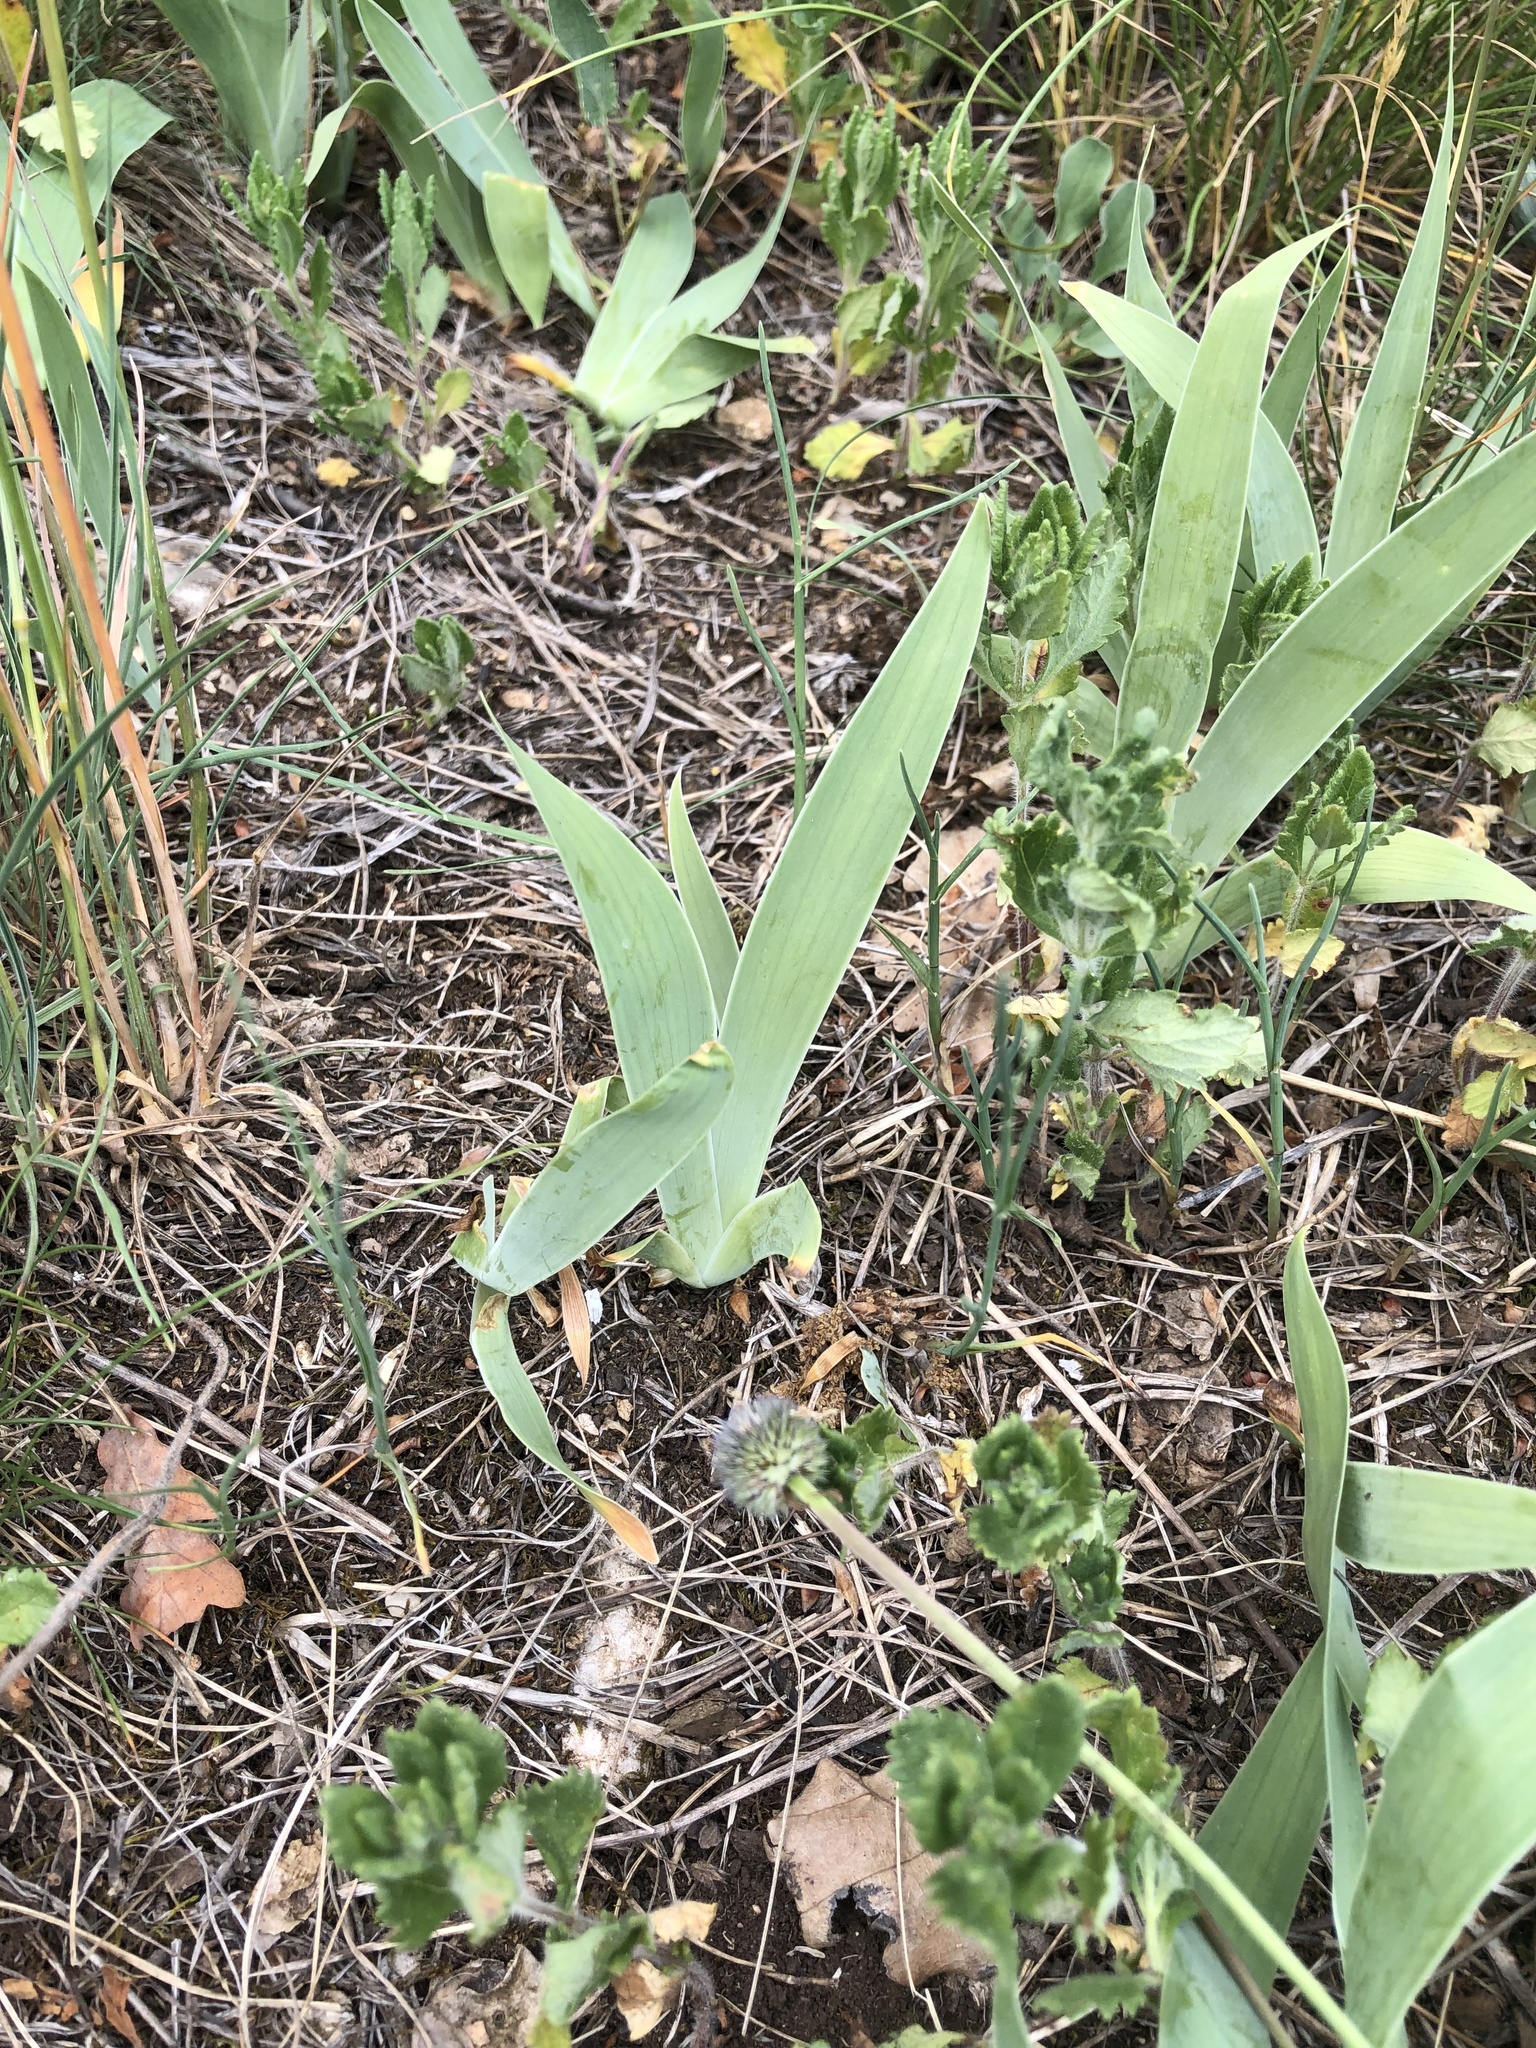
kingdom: Plantae
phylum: Tracheophyta
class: Liliopsida
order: Asparagales
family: Iridaceae
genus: Iris
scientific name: Iris pumila
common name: Dwarf iris
